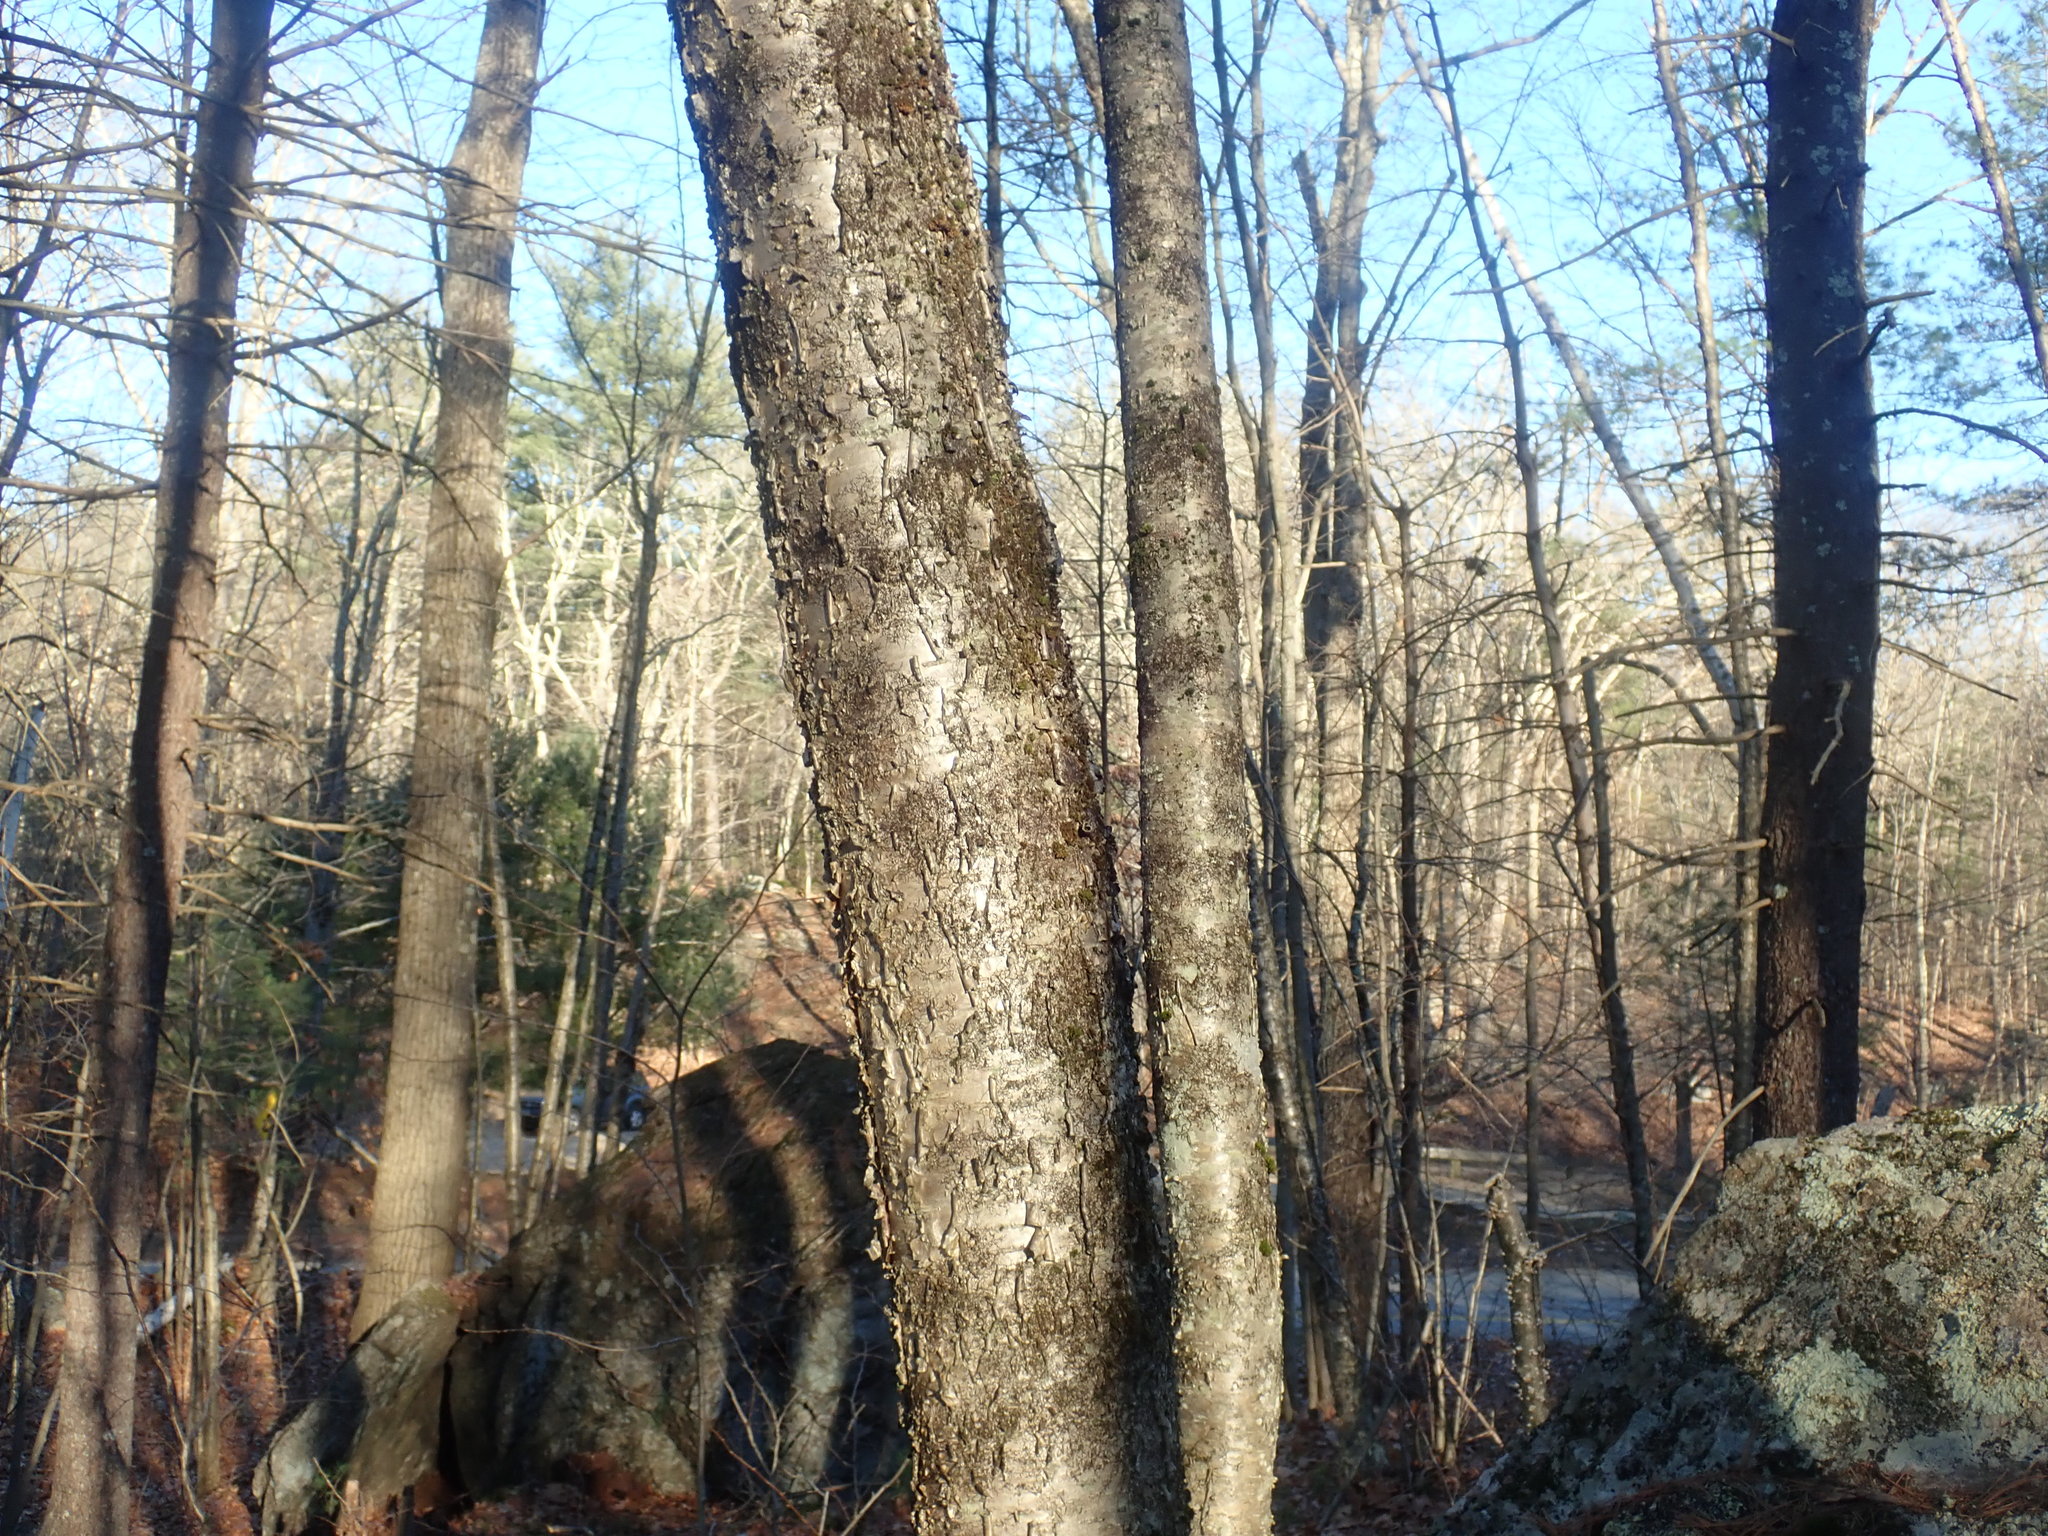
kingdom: Plantae
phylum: Tracheophyta
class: Magnoliopsida
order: Fagales
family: Betulaceae
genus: Betula
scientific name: Betula alleghaniensis
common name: Yellow birch
